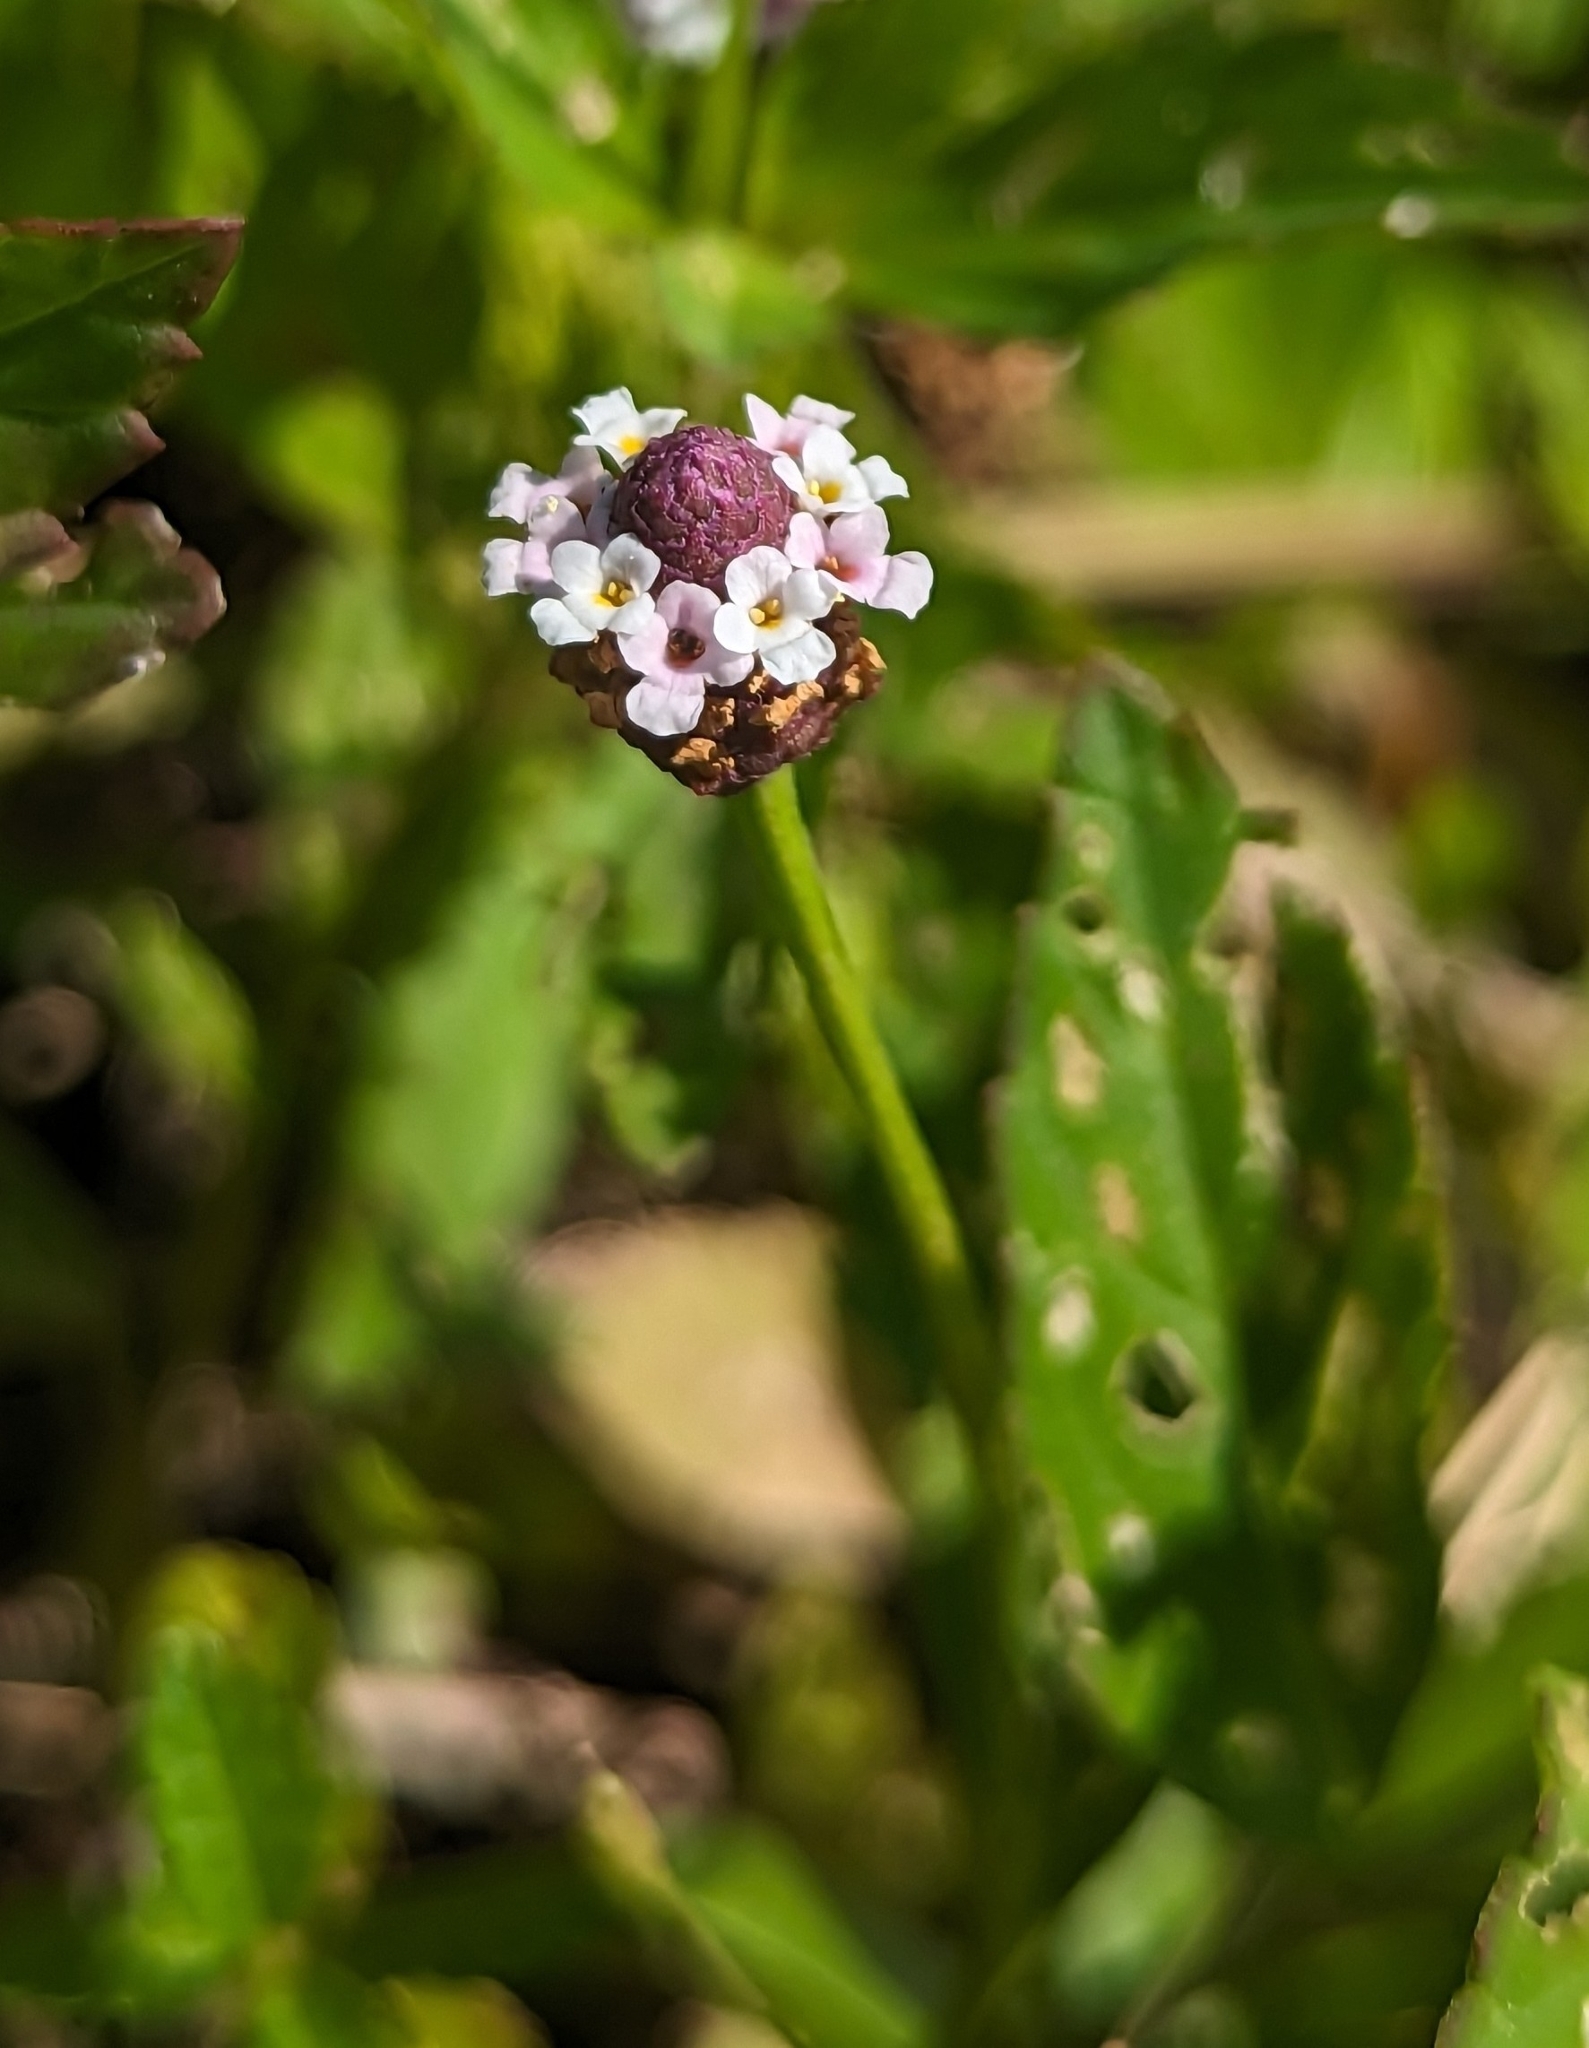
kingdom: Plantae
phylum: Tracheophyta
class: Magnoliopsida
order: Lamiales
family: Verbenaceae
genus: Phyla
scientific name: Phyla lanceolata
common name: Northern fogfruit
